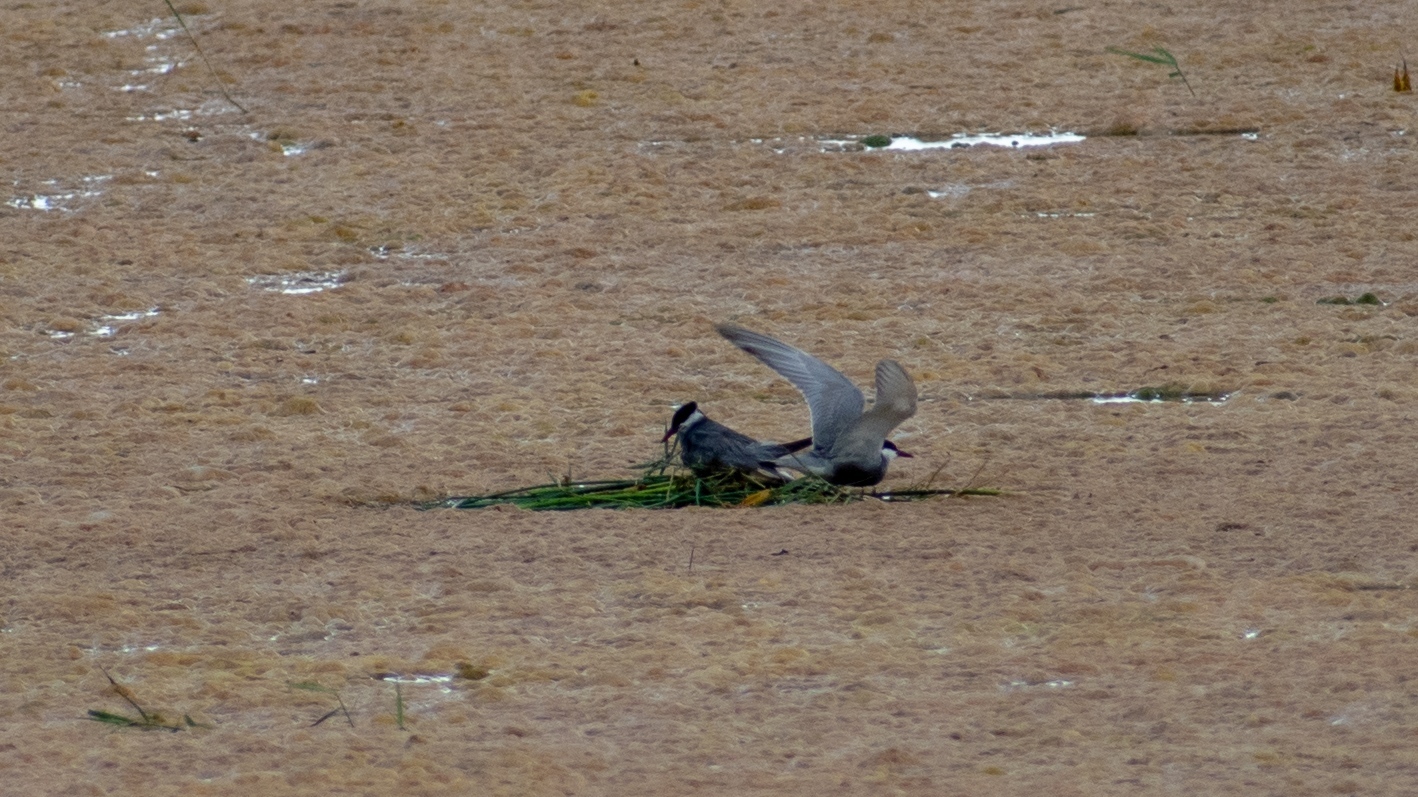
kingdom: Animalia
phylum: Chordata
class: Aves
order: Charadriiformes
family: Laridae
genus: Chlidonias
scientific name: Chlidonias hybrida
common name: Whiskered tern
